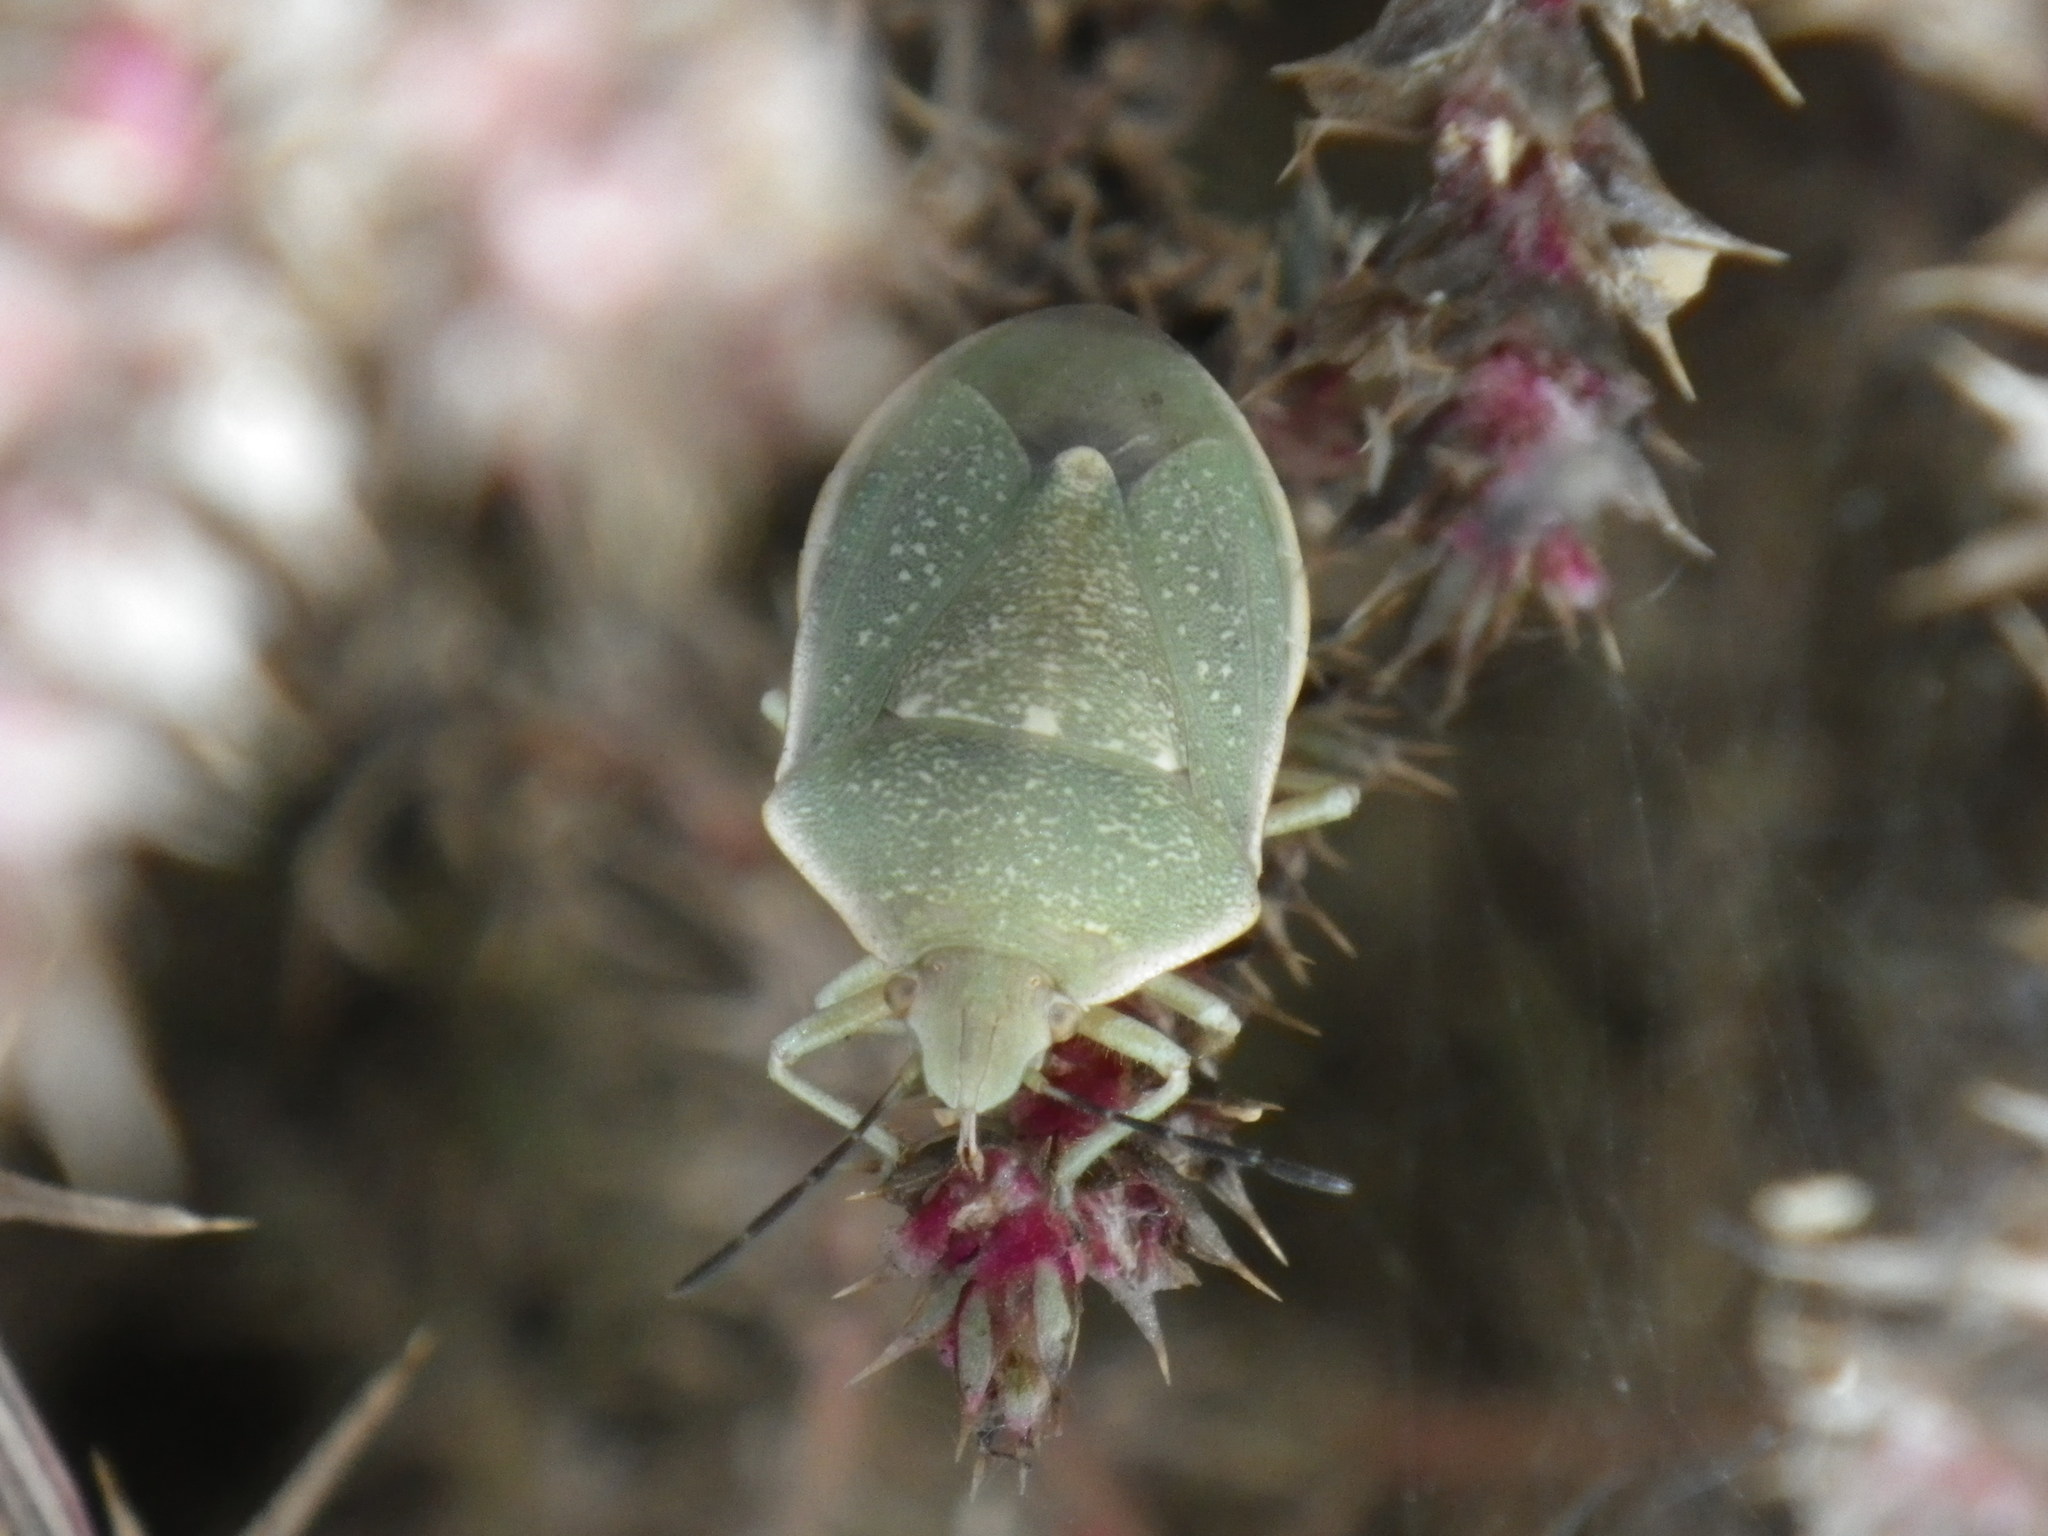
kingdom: Animalia
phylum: Arthropoda
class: Insecta
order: Hemiptera
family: Pentatomidae
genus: Chlorochroa
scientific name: Chlorochroa sayi
